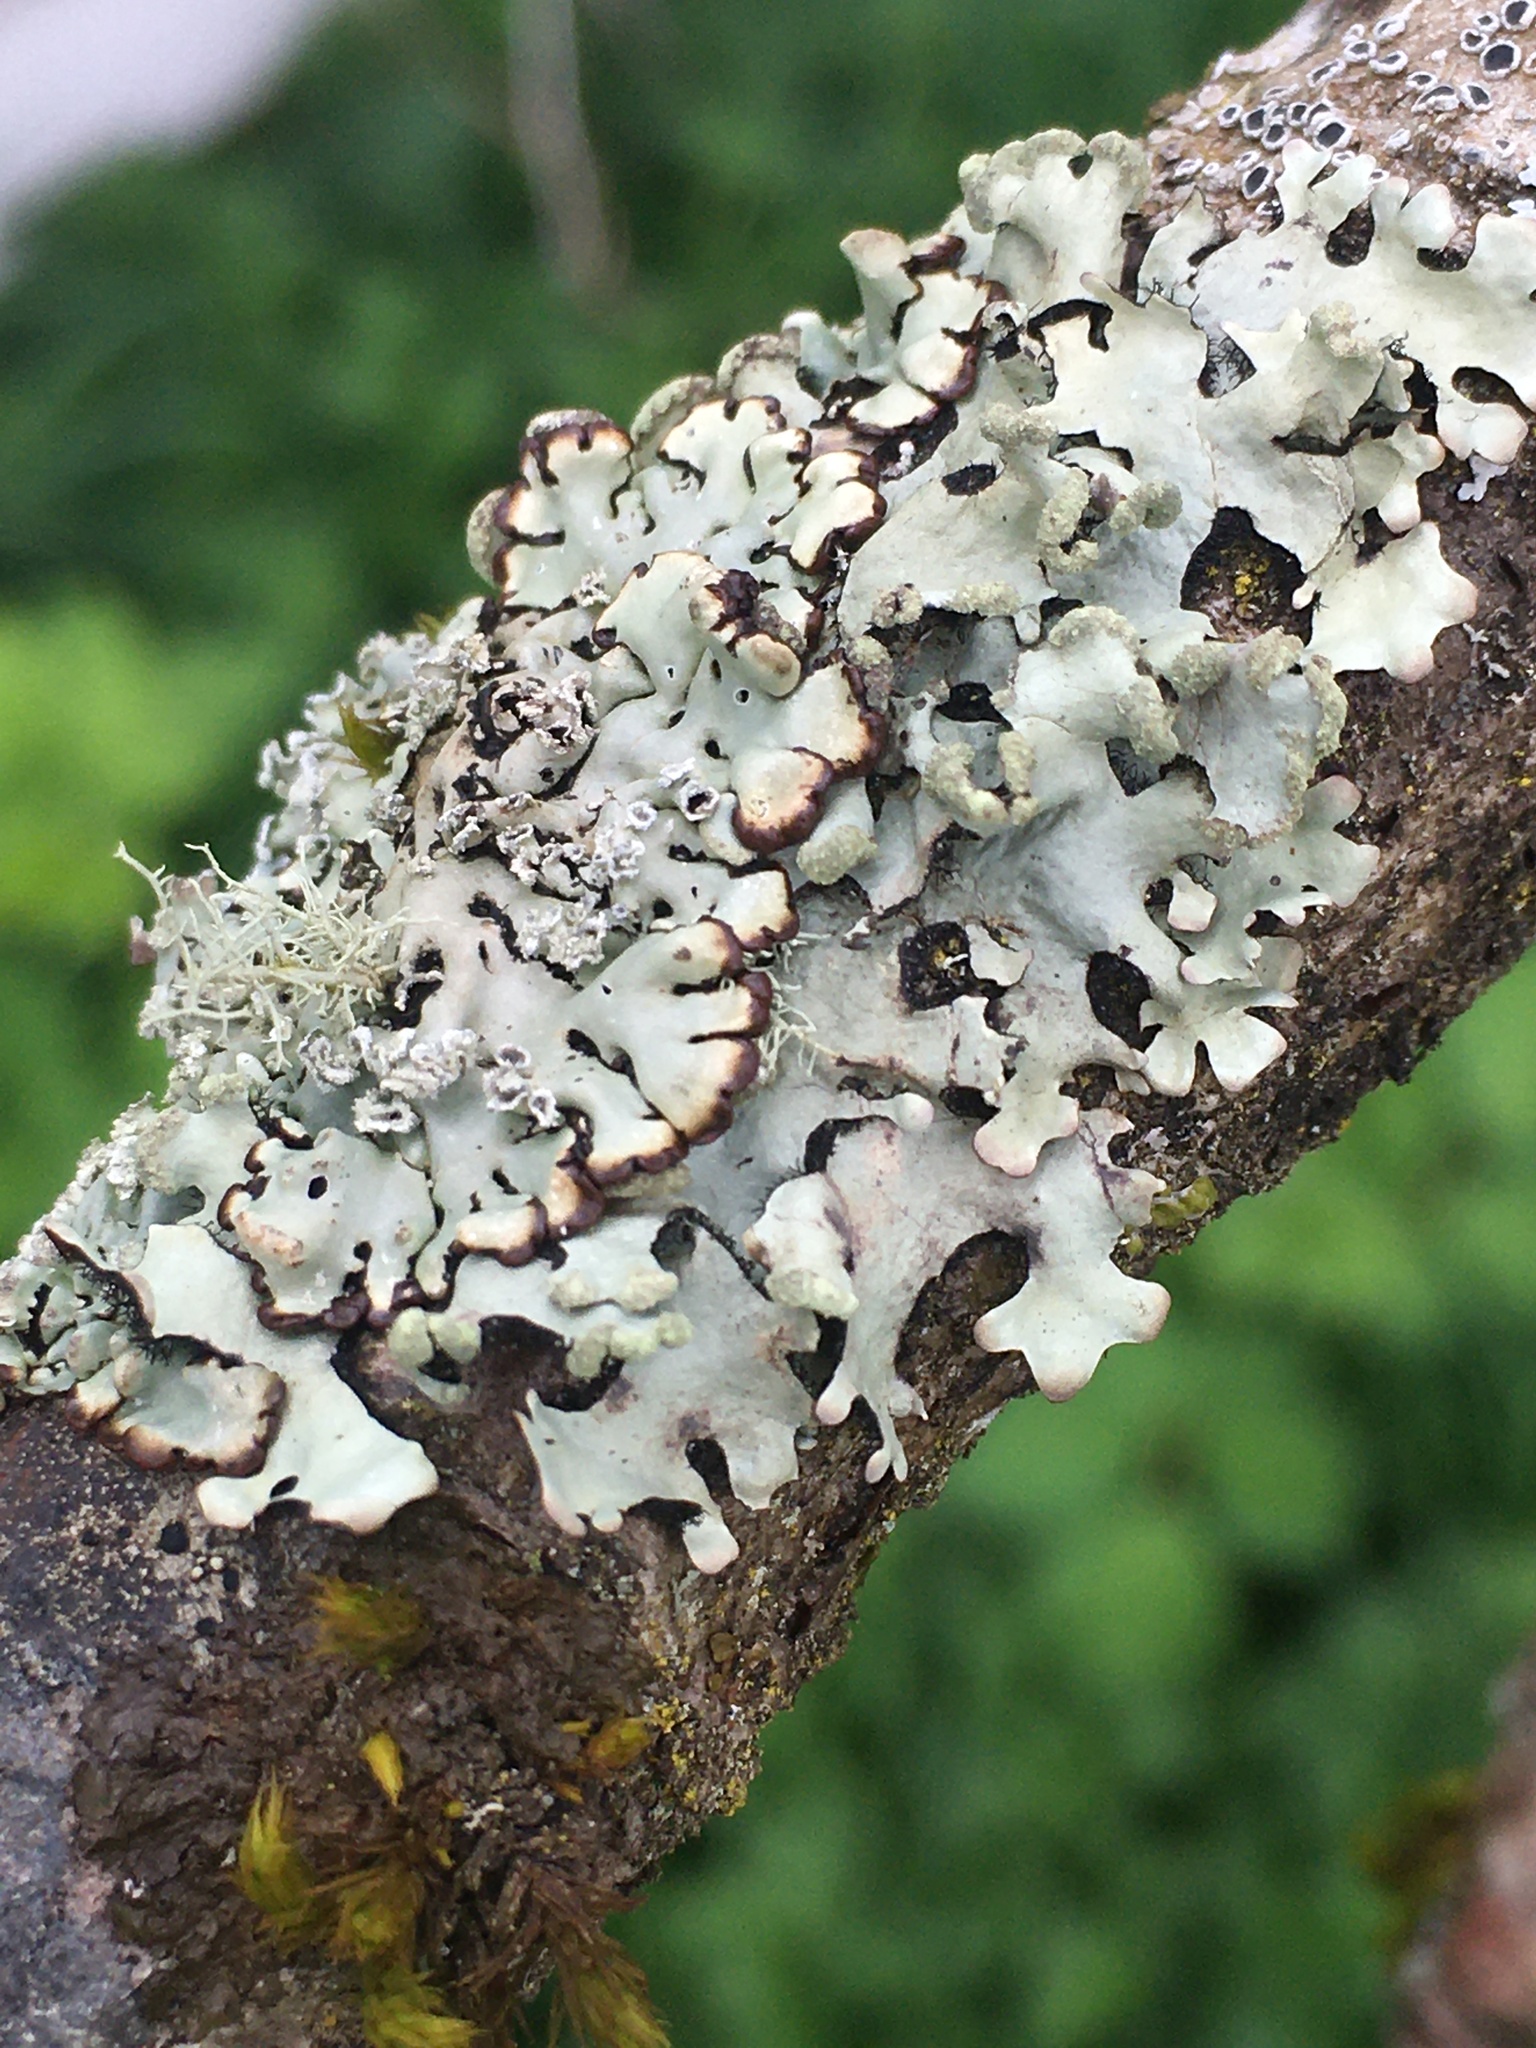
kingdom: Fungi
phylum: Ascomycota
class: Lecanoromycetes
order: Lecanorales
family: Parmeliaceae
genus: Hypotrachyna
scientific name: Hypotrachyna sinuosa
